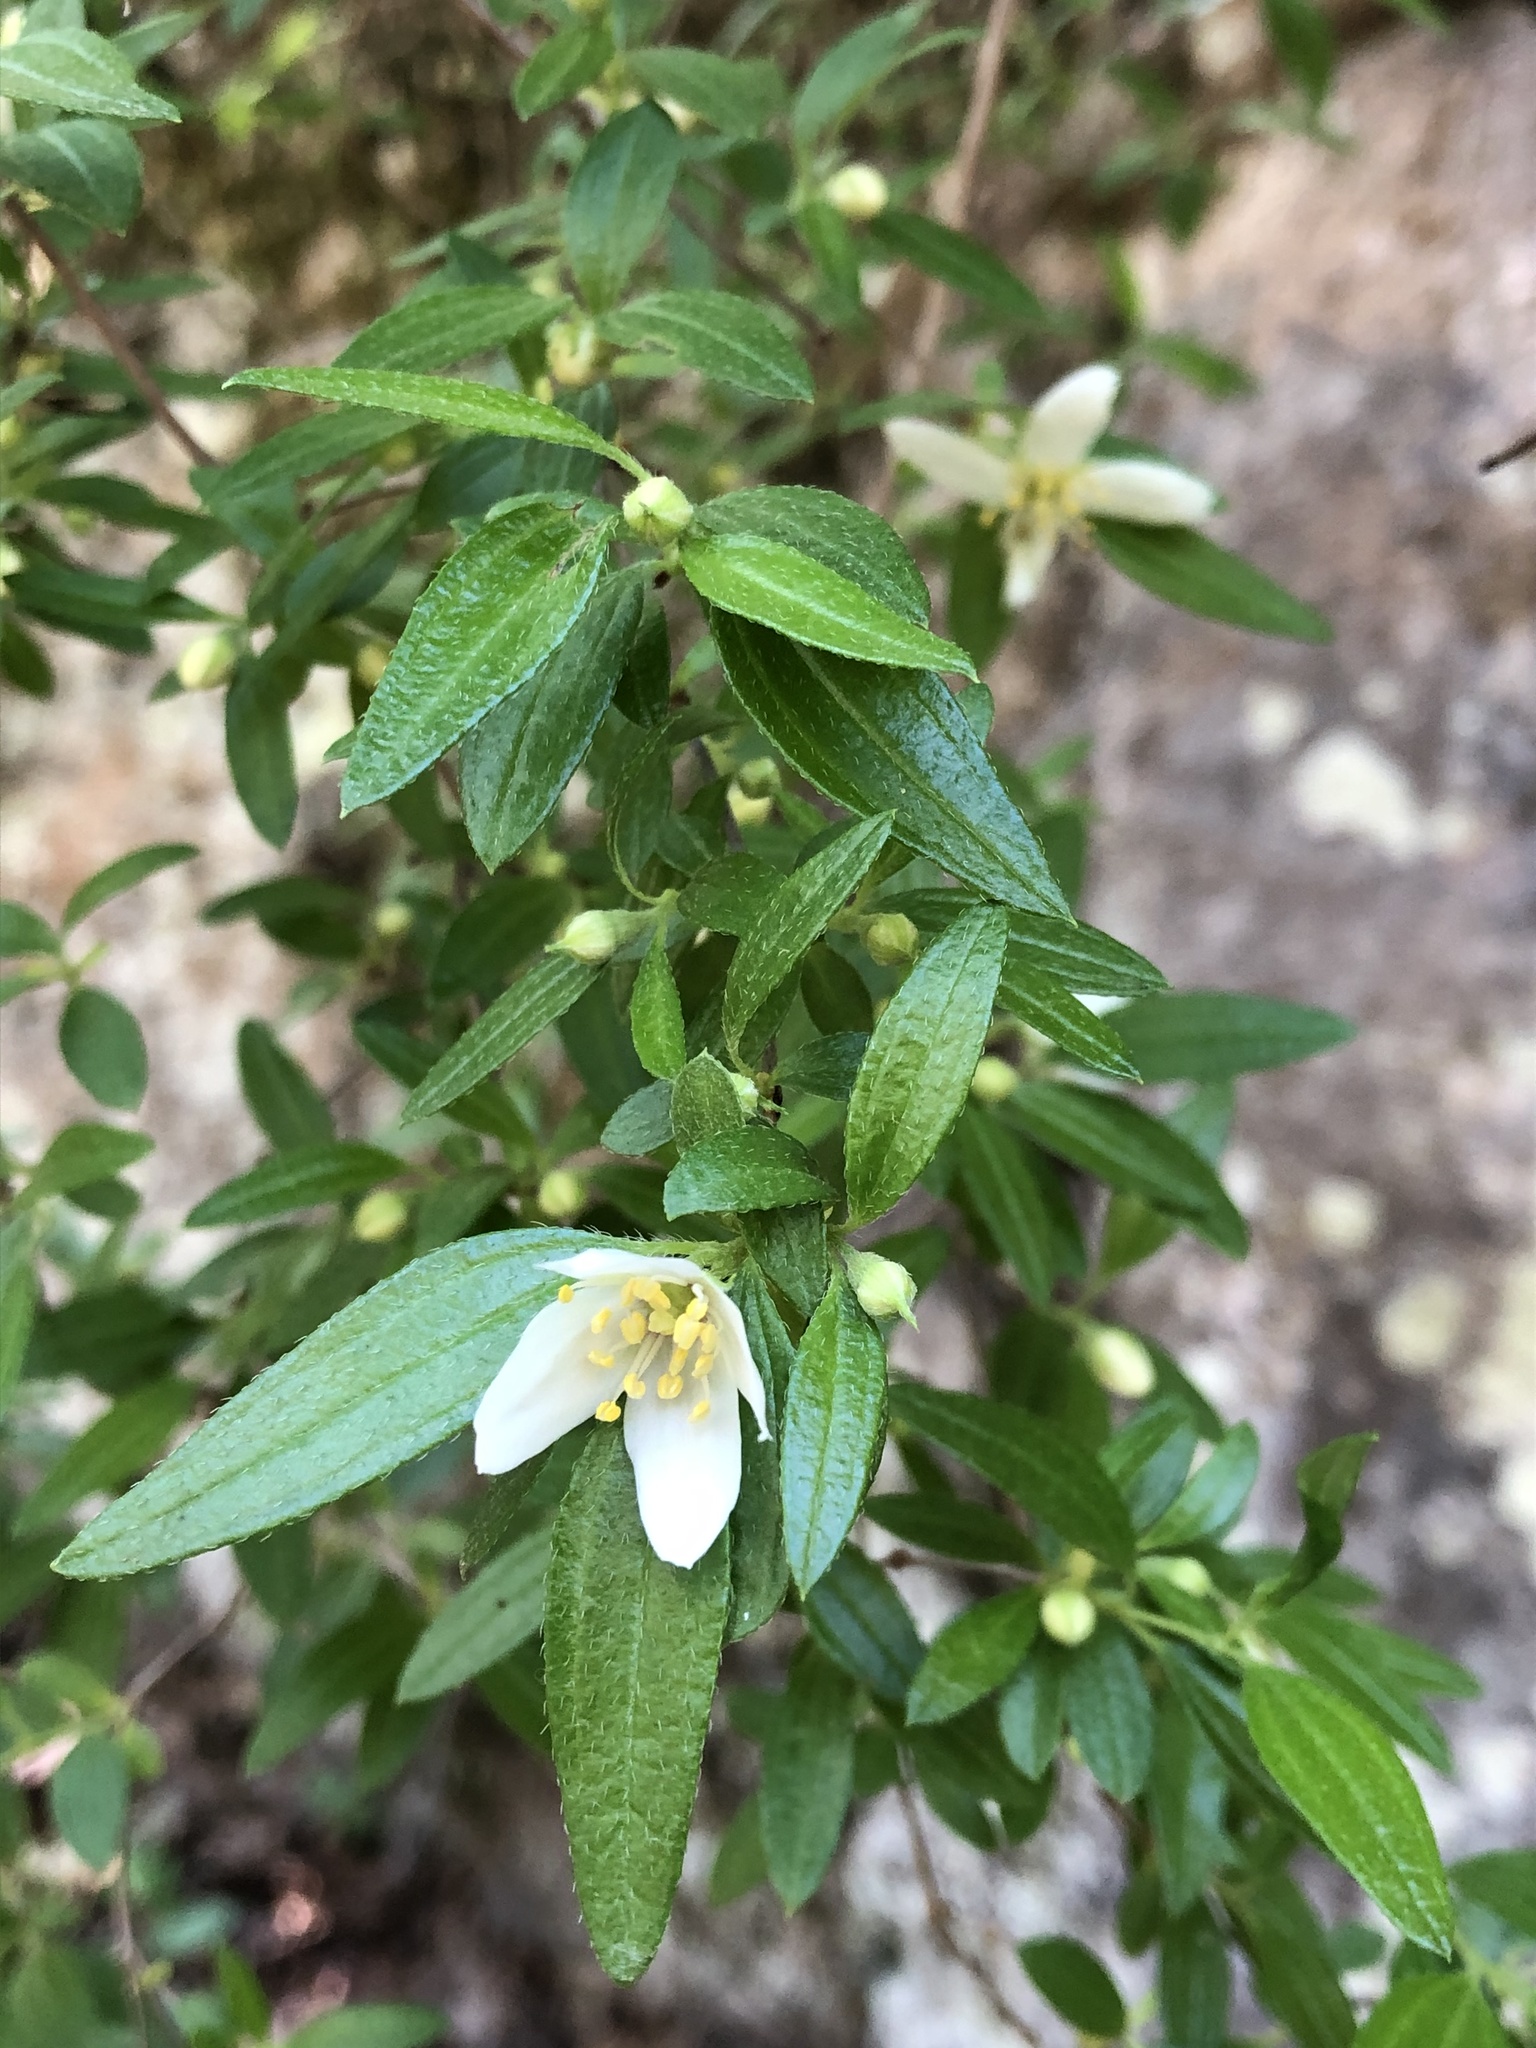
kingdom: Plantae
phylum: Tracheophyta
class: Magnoliopsida
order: Cornales
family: Hydrangeaceae
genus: Philadelphus
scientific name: Philadelphus texensis
